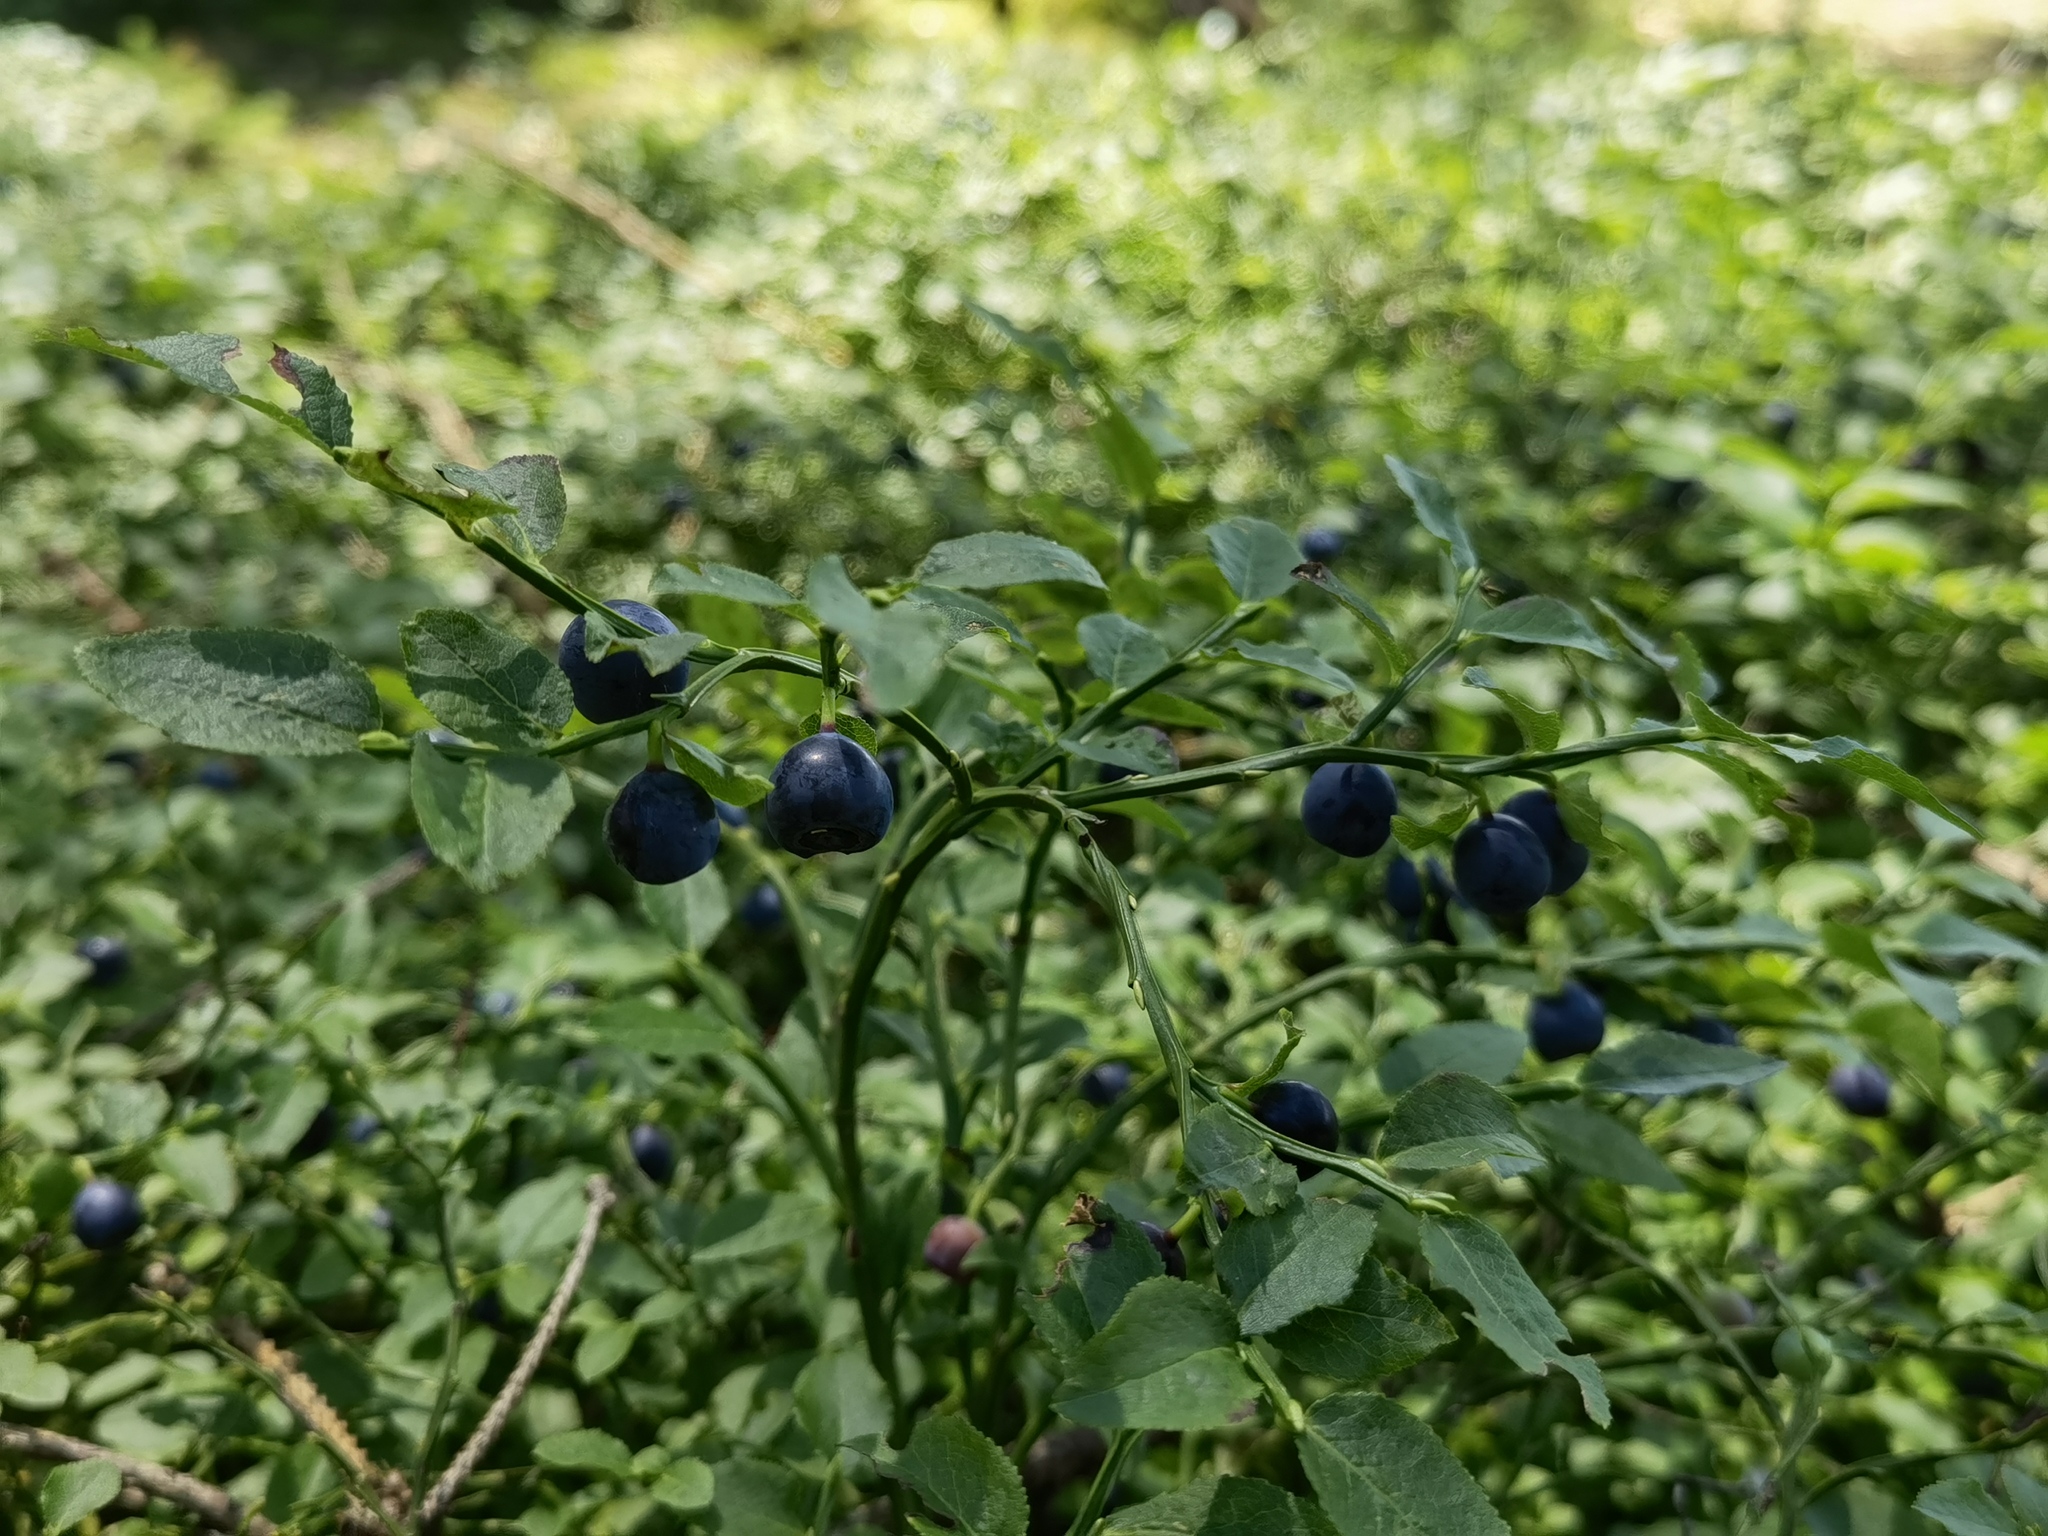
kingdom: Plantae
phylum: Tracheophyta
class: Magnoliopsida
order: Ericales
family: Ericaceae
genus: Vaccinium
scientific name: Vaccinium myrtillus
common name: Bilberry
